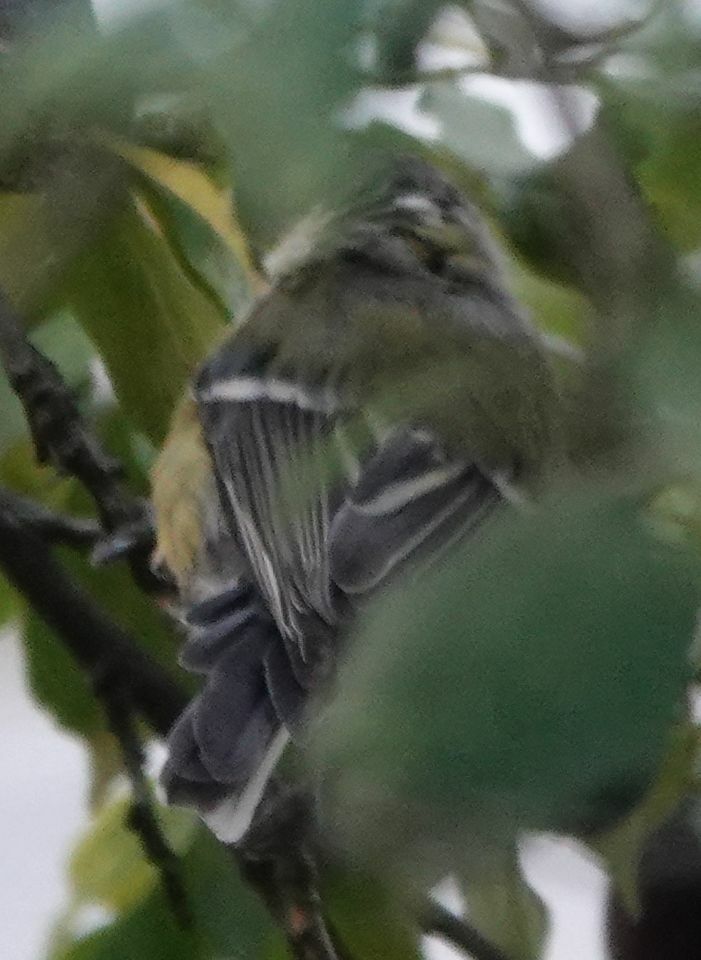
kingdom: Animalia
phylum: Chordata
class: Aves
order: Passeriformes
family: Paridae
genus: Parus
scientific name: Parus major
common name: Great tit
